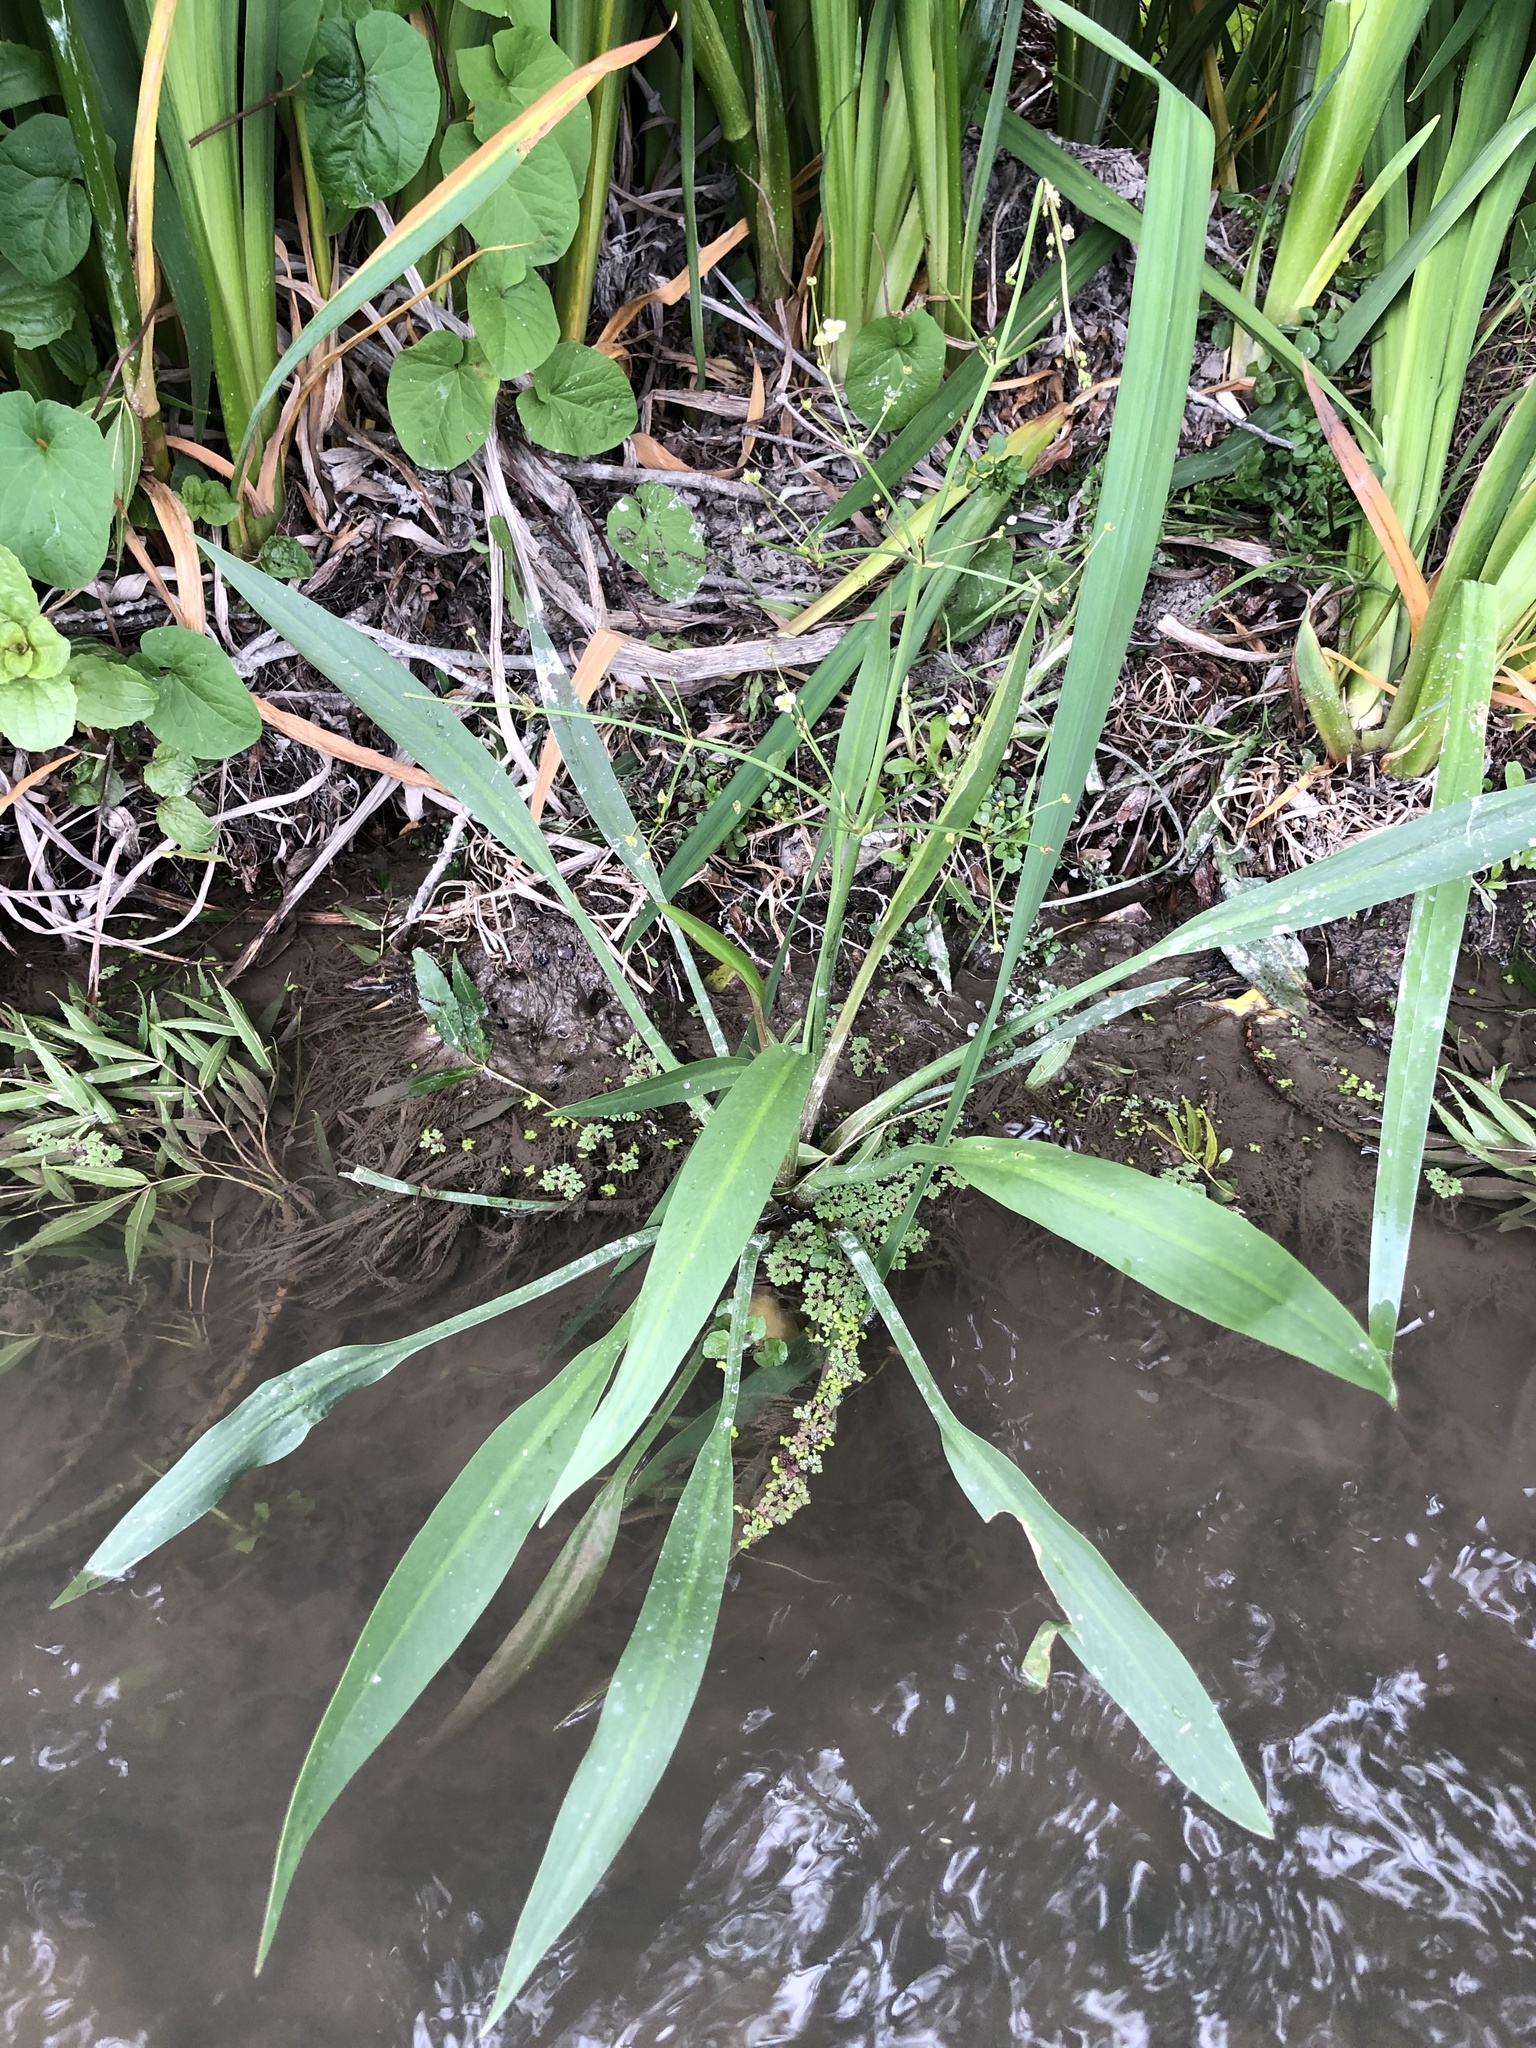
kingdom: Plantae
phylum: Tracheophyta
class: Liliopsida
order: Alismatales
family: Alismataceae
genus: Alisma
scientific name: Alisma plantago-aquatica
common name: Water-plantain
